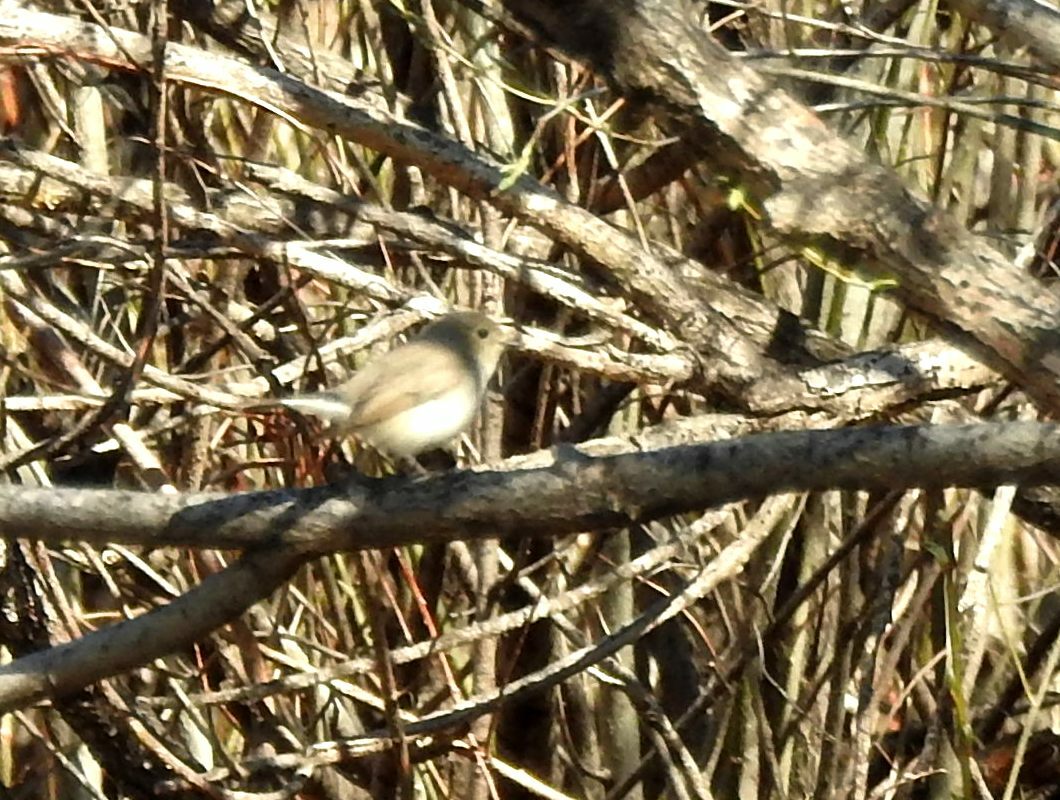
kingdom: Animalia
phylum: Chordata
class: Aves
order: Passeriformes
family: Muscicapidae
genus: Ficedula
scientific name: Ficedula albicilla
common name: Taiga flycatcher
